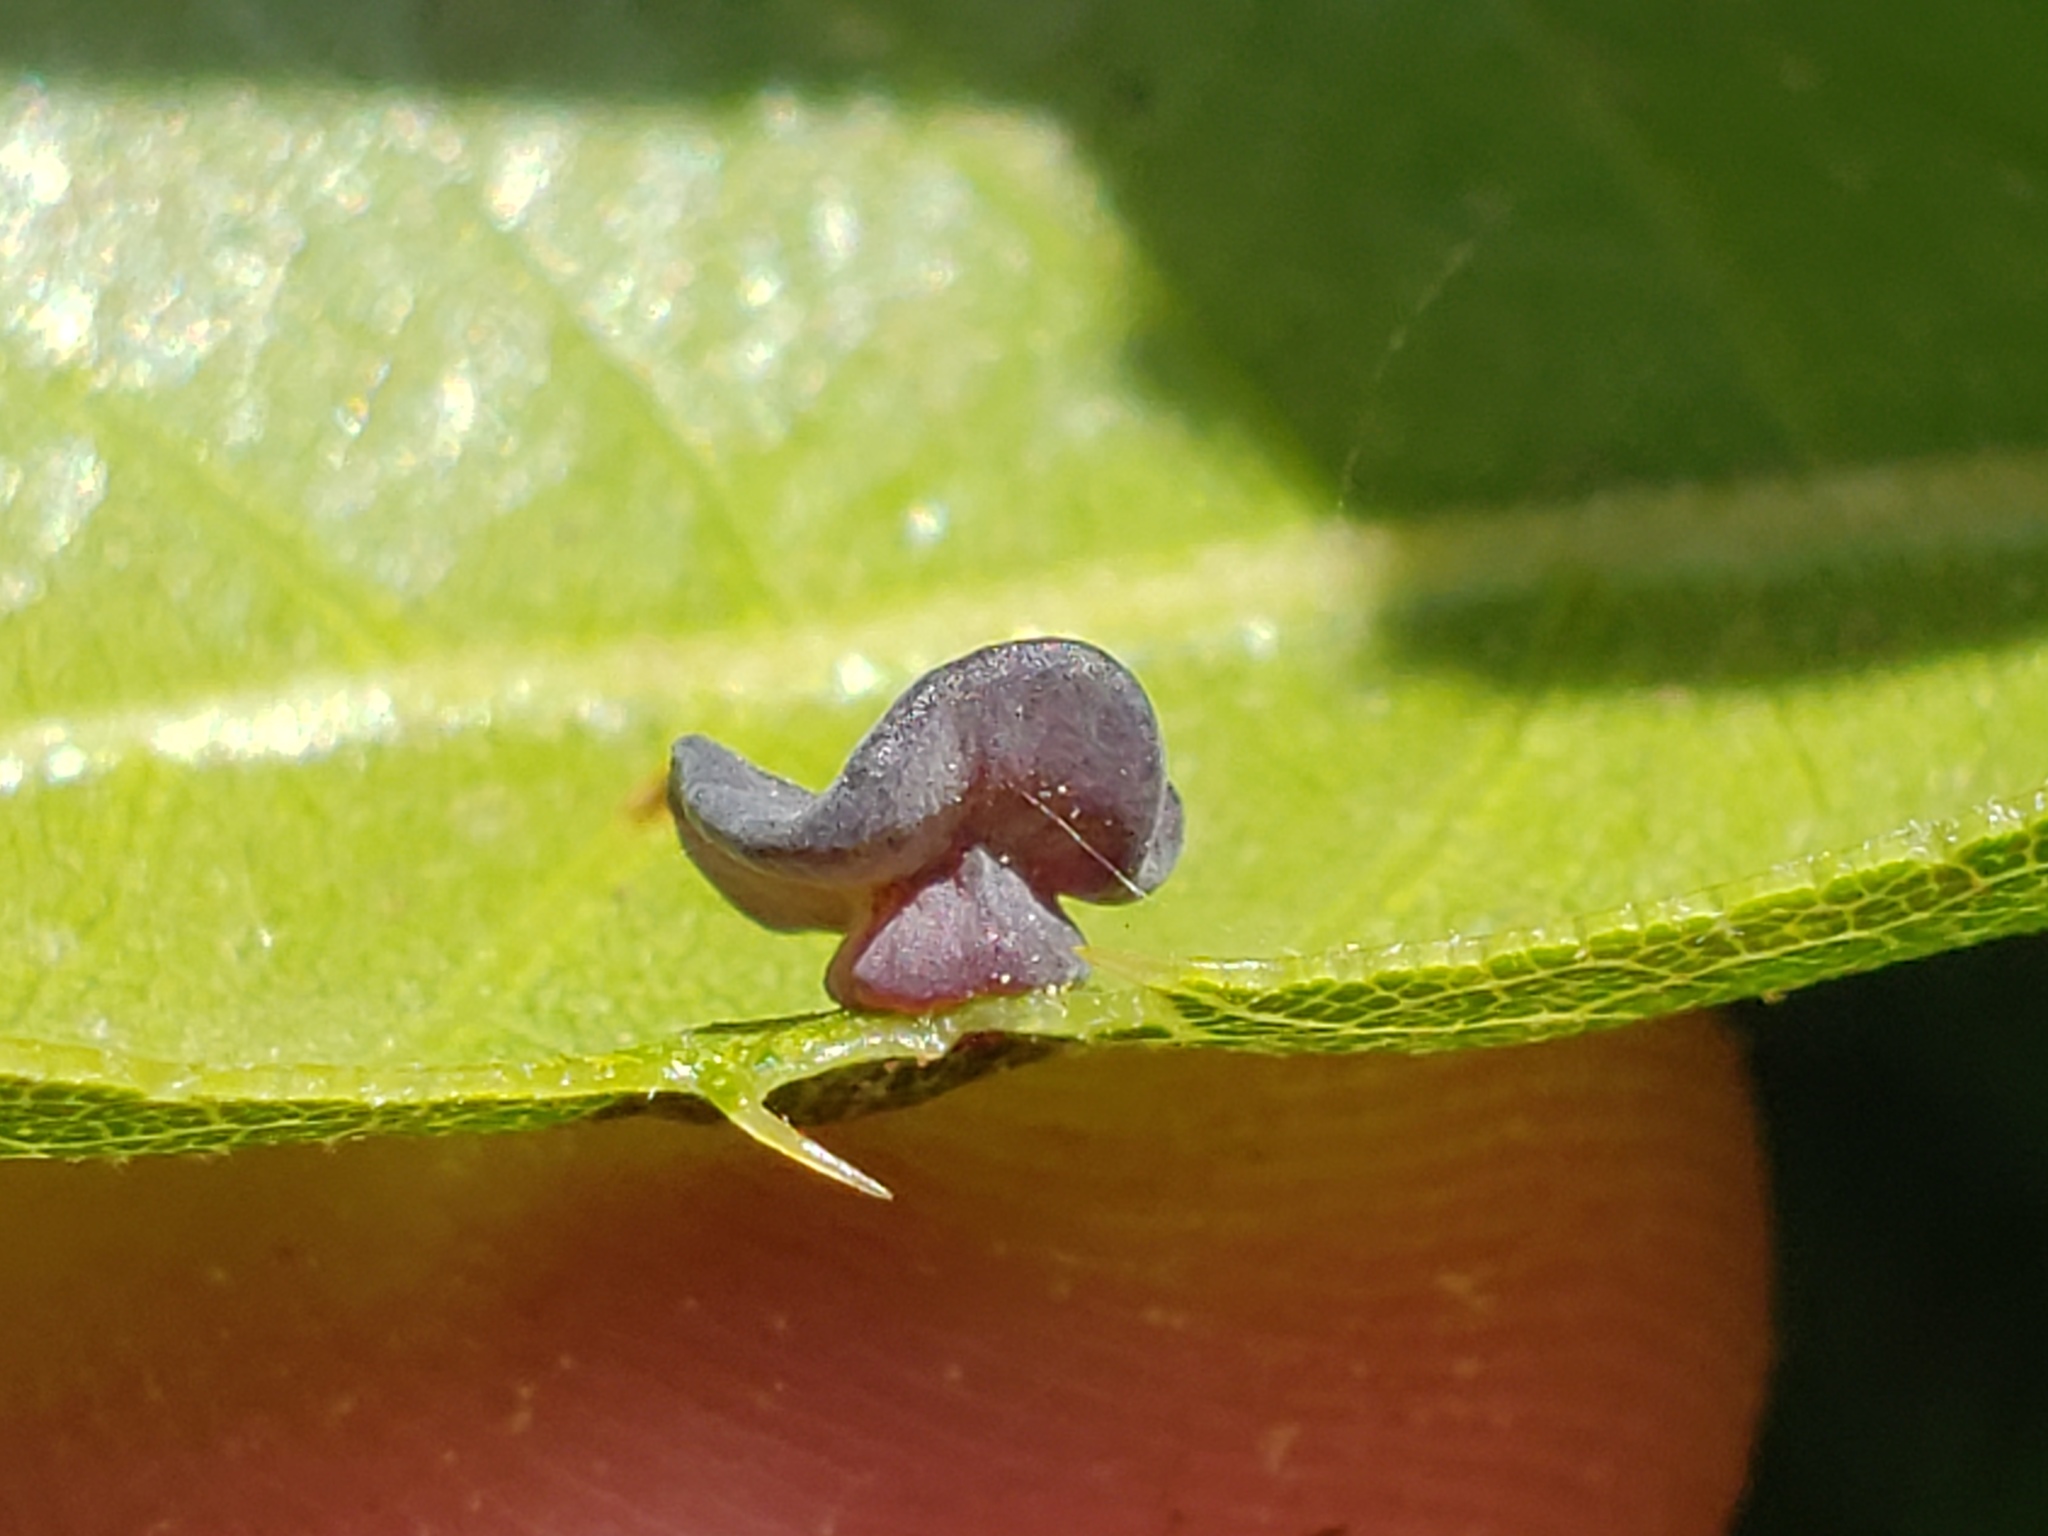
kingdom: Animalia
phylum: Arthropoda
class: Insecta
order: Hymenoptera
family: Cynipidae
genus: Amphibolips
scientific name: Amphibolips quercuspomiformis
